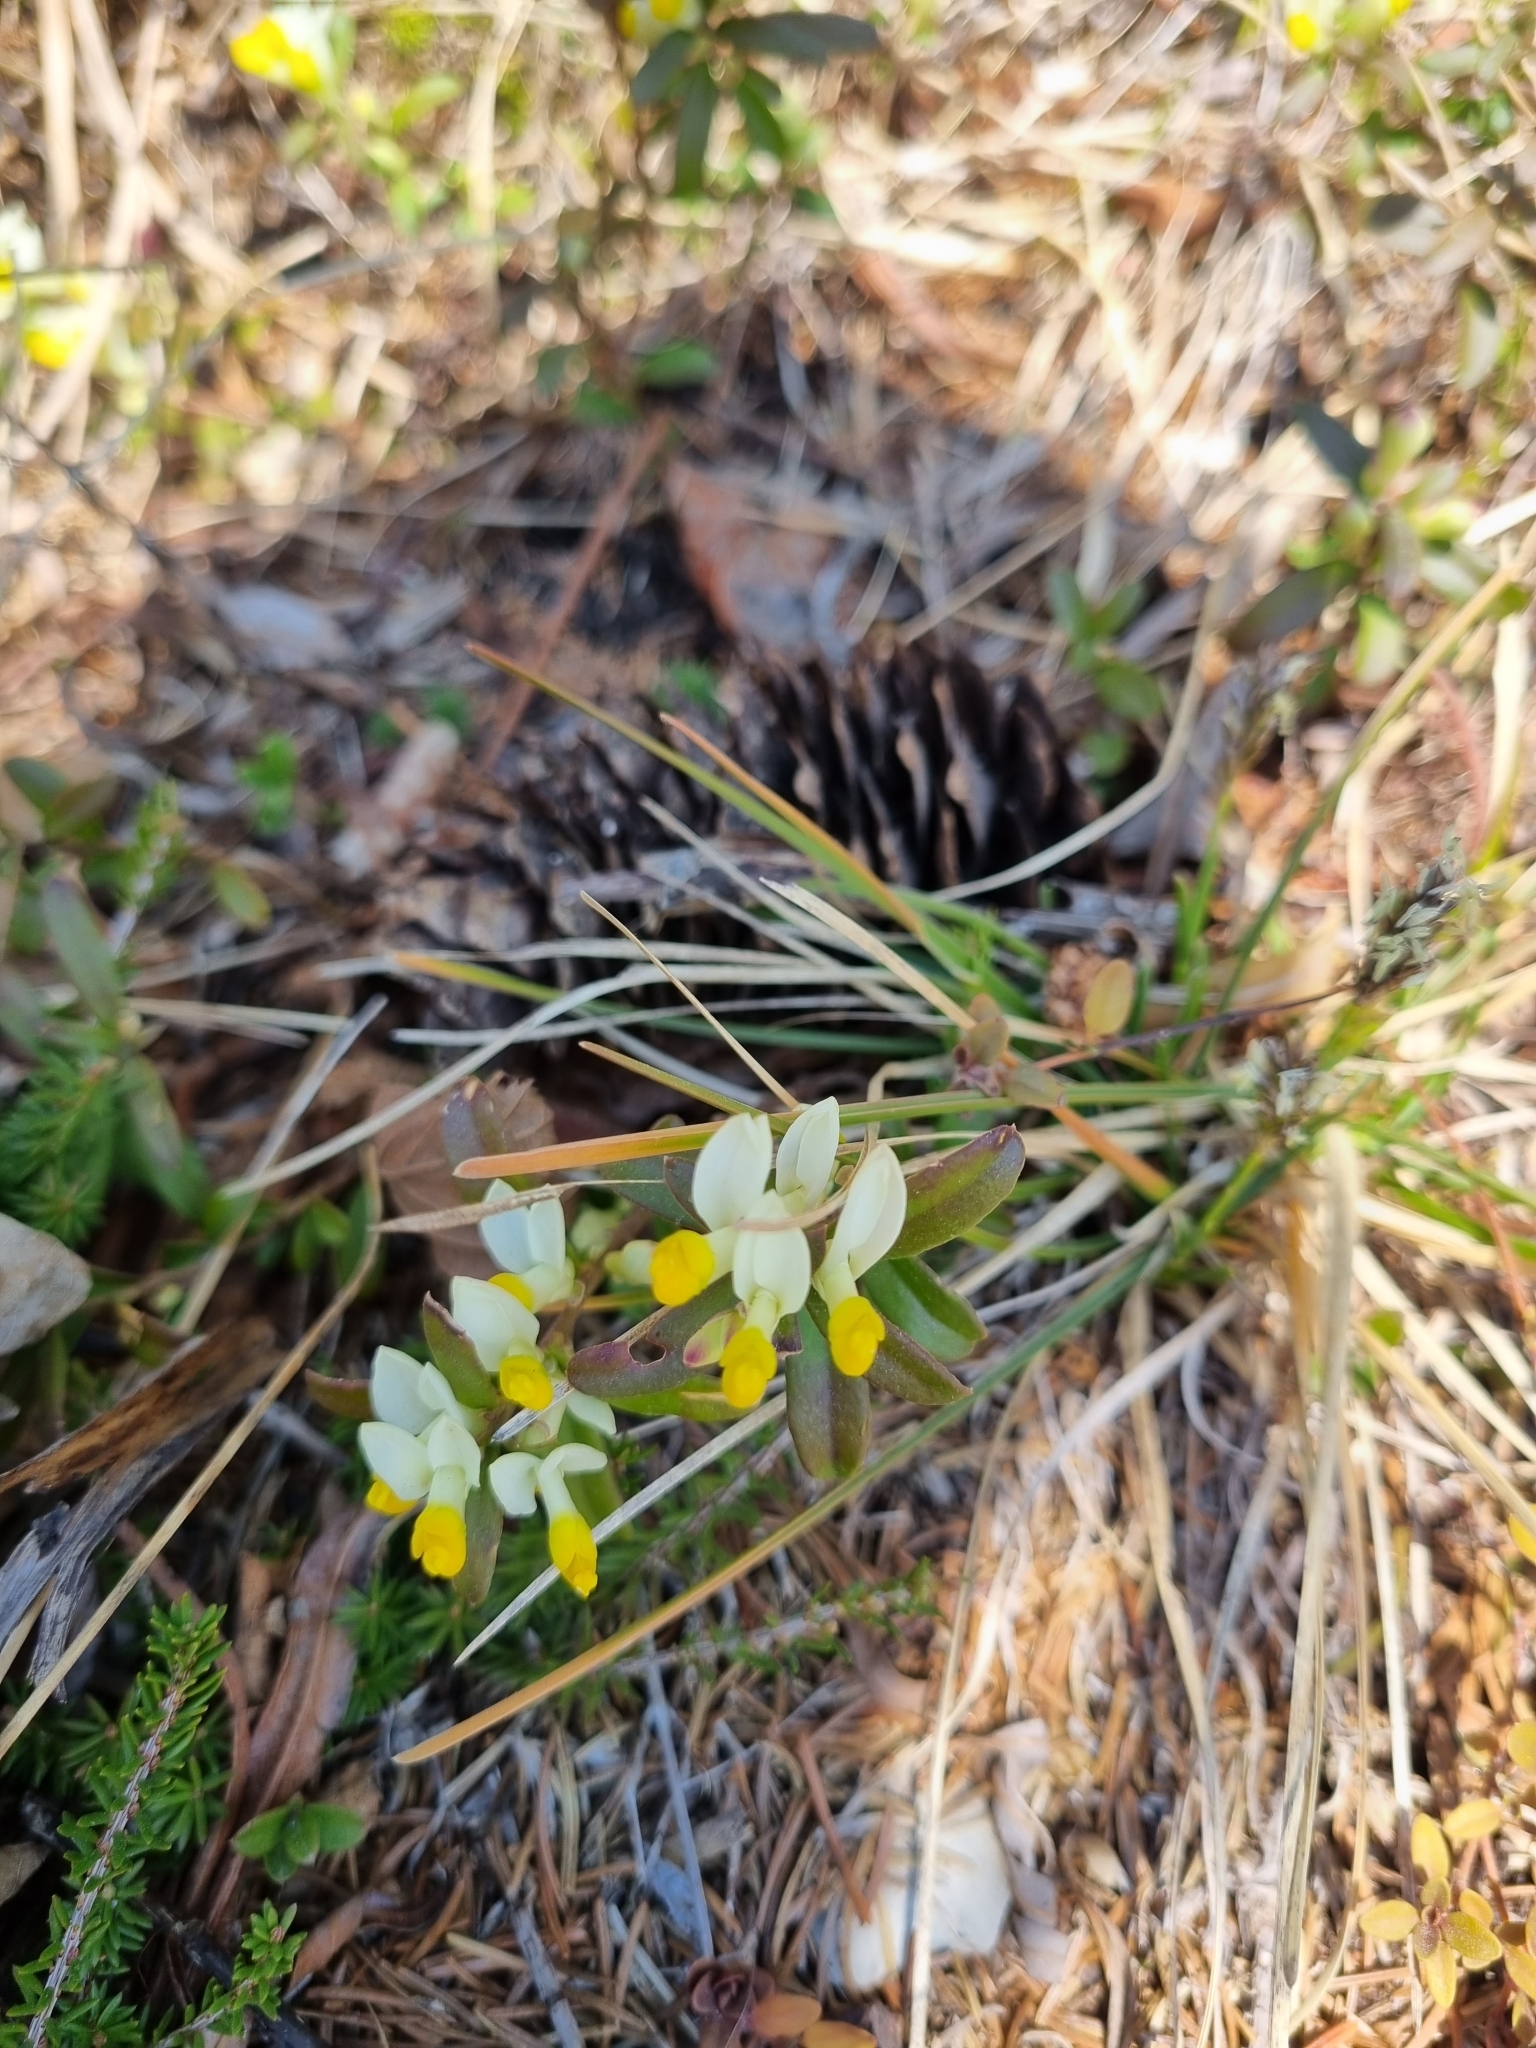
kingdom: Plantae
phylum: Tracheophyta
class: Magnoliopsida
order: Fabales
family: Polygalaceae
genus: Polygaloides
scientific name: Polygaloides chamaebuxus
